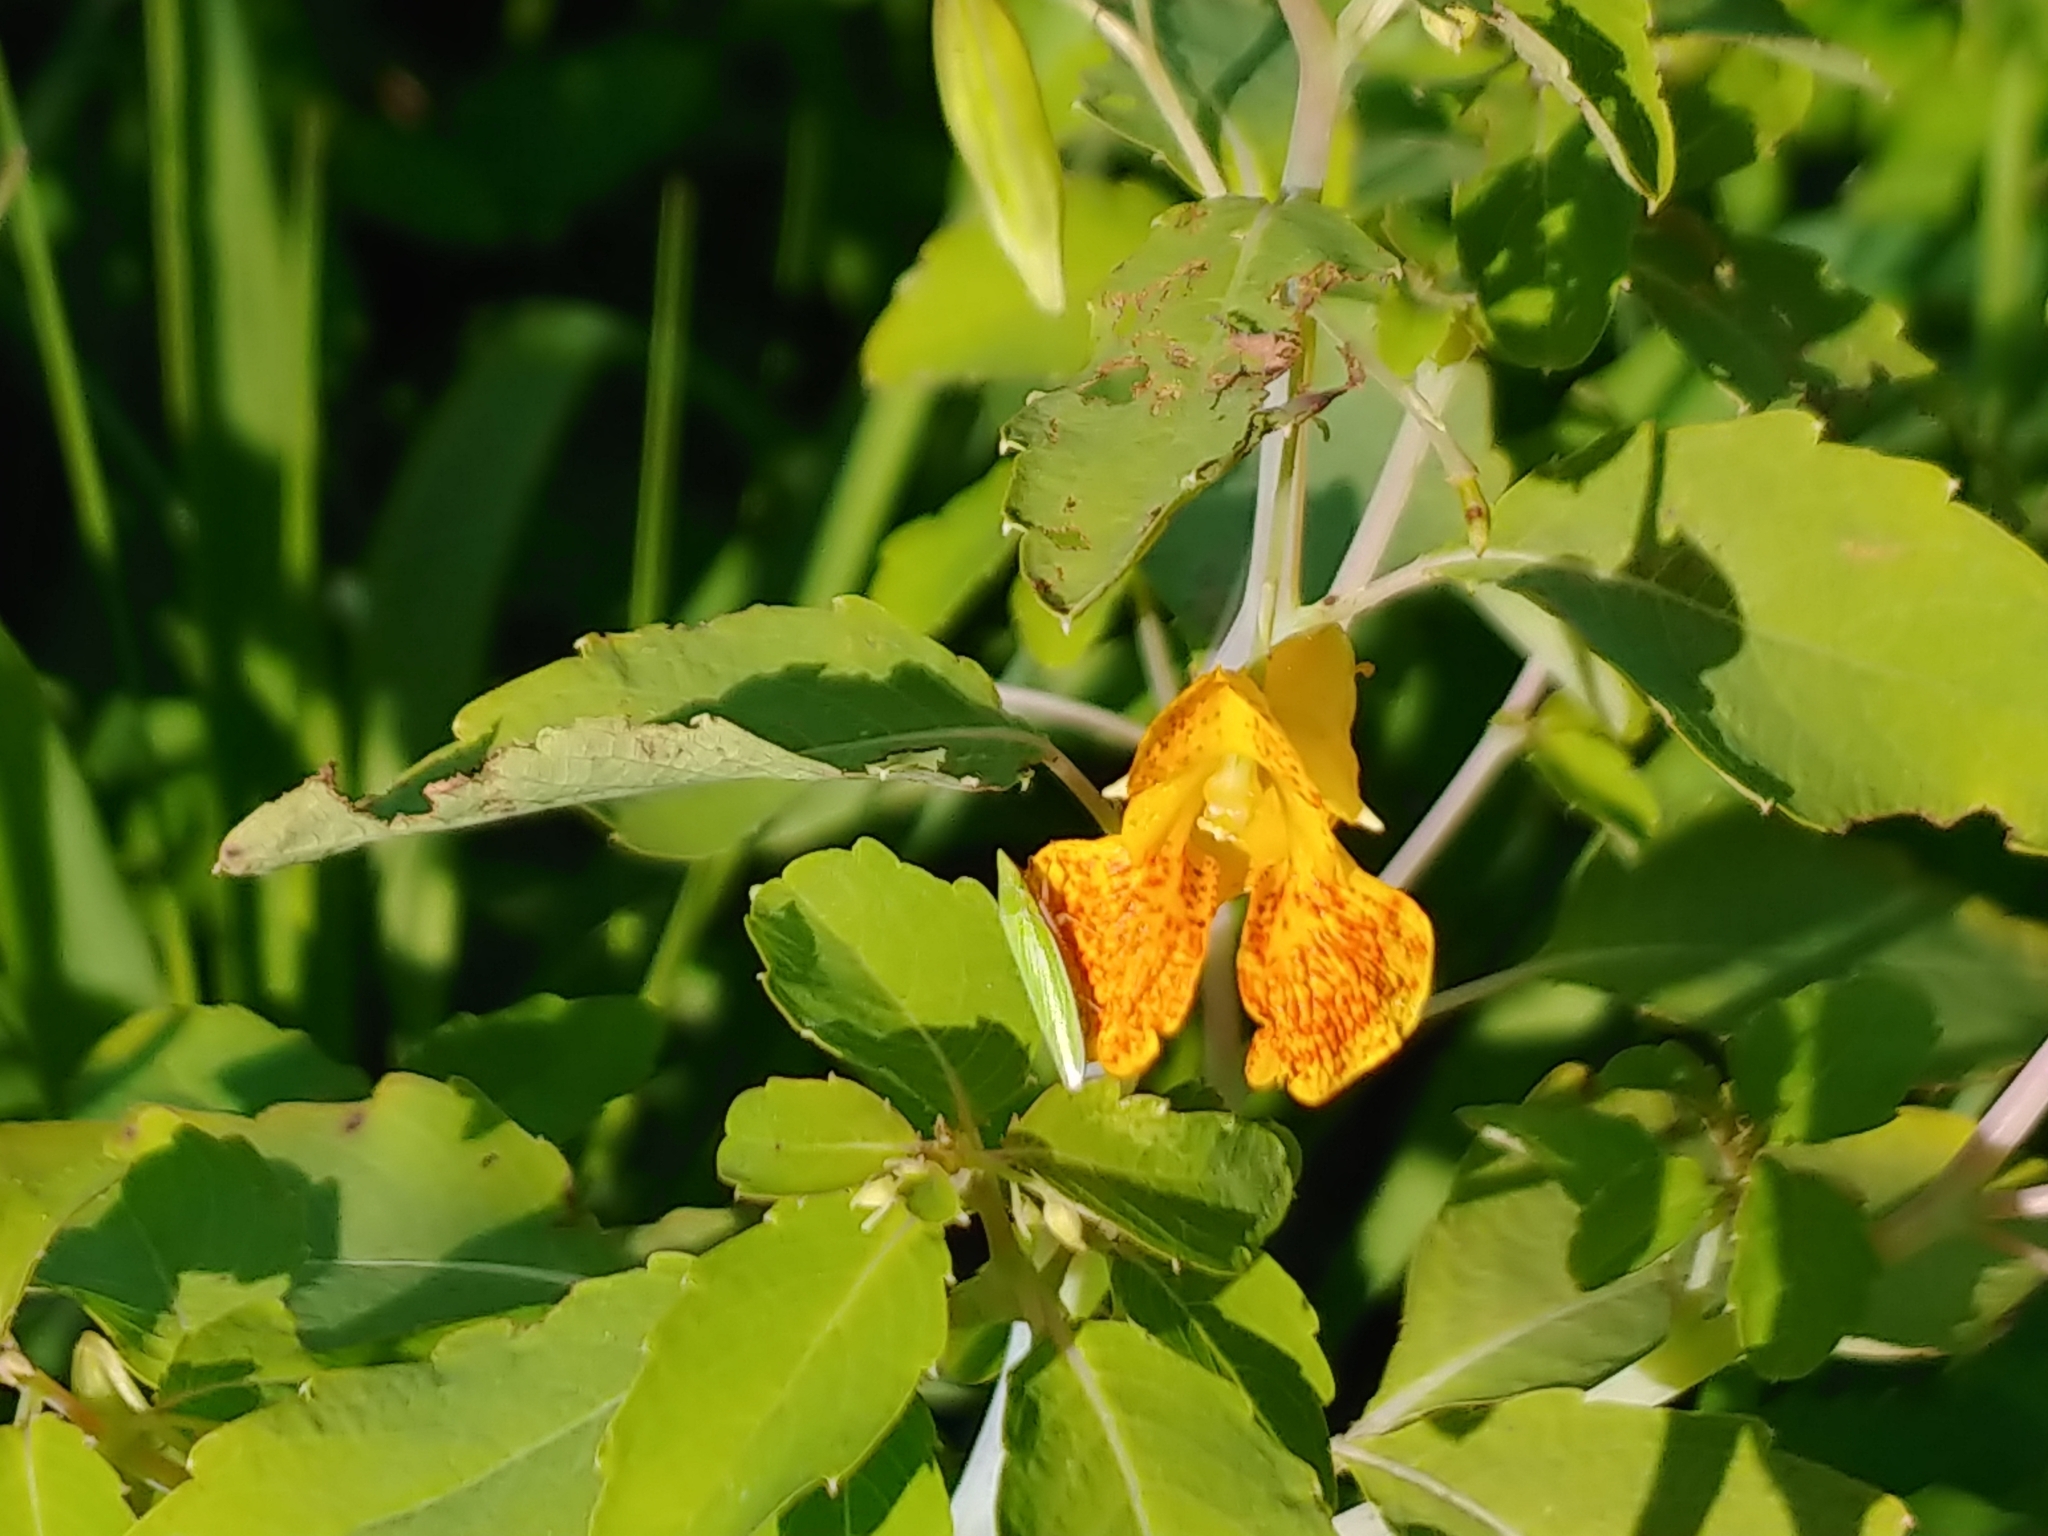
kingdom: Plantae
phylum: Tracheophyta
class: Magnoliopsida
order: Ericales
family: Balsaminaceae
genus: Impatiens
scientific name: Impatiens capensis
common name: Orange balsam
